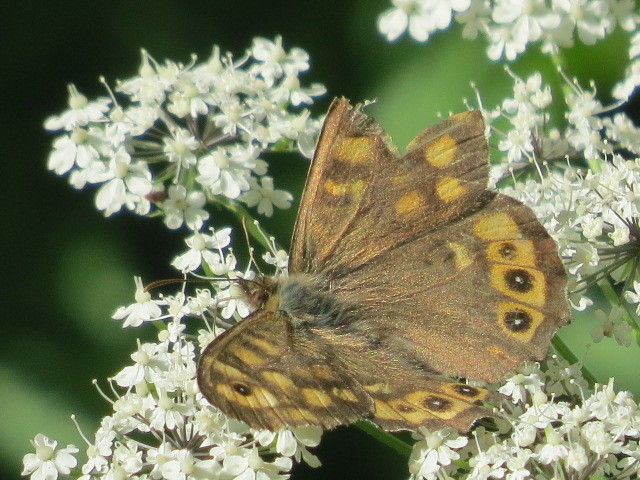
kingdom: Animalia
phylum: Arthropoda
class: Insecta
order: Lepidoptera
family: Nymphalidae
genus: Pararge
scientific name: Pararge aegeria
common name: Speckled wood
